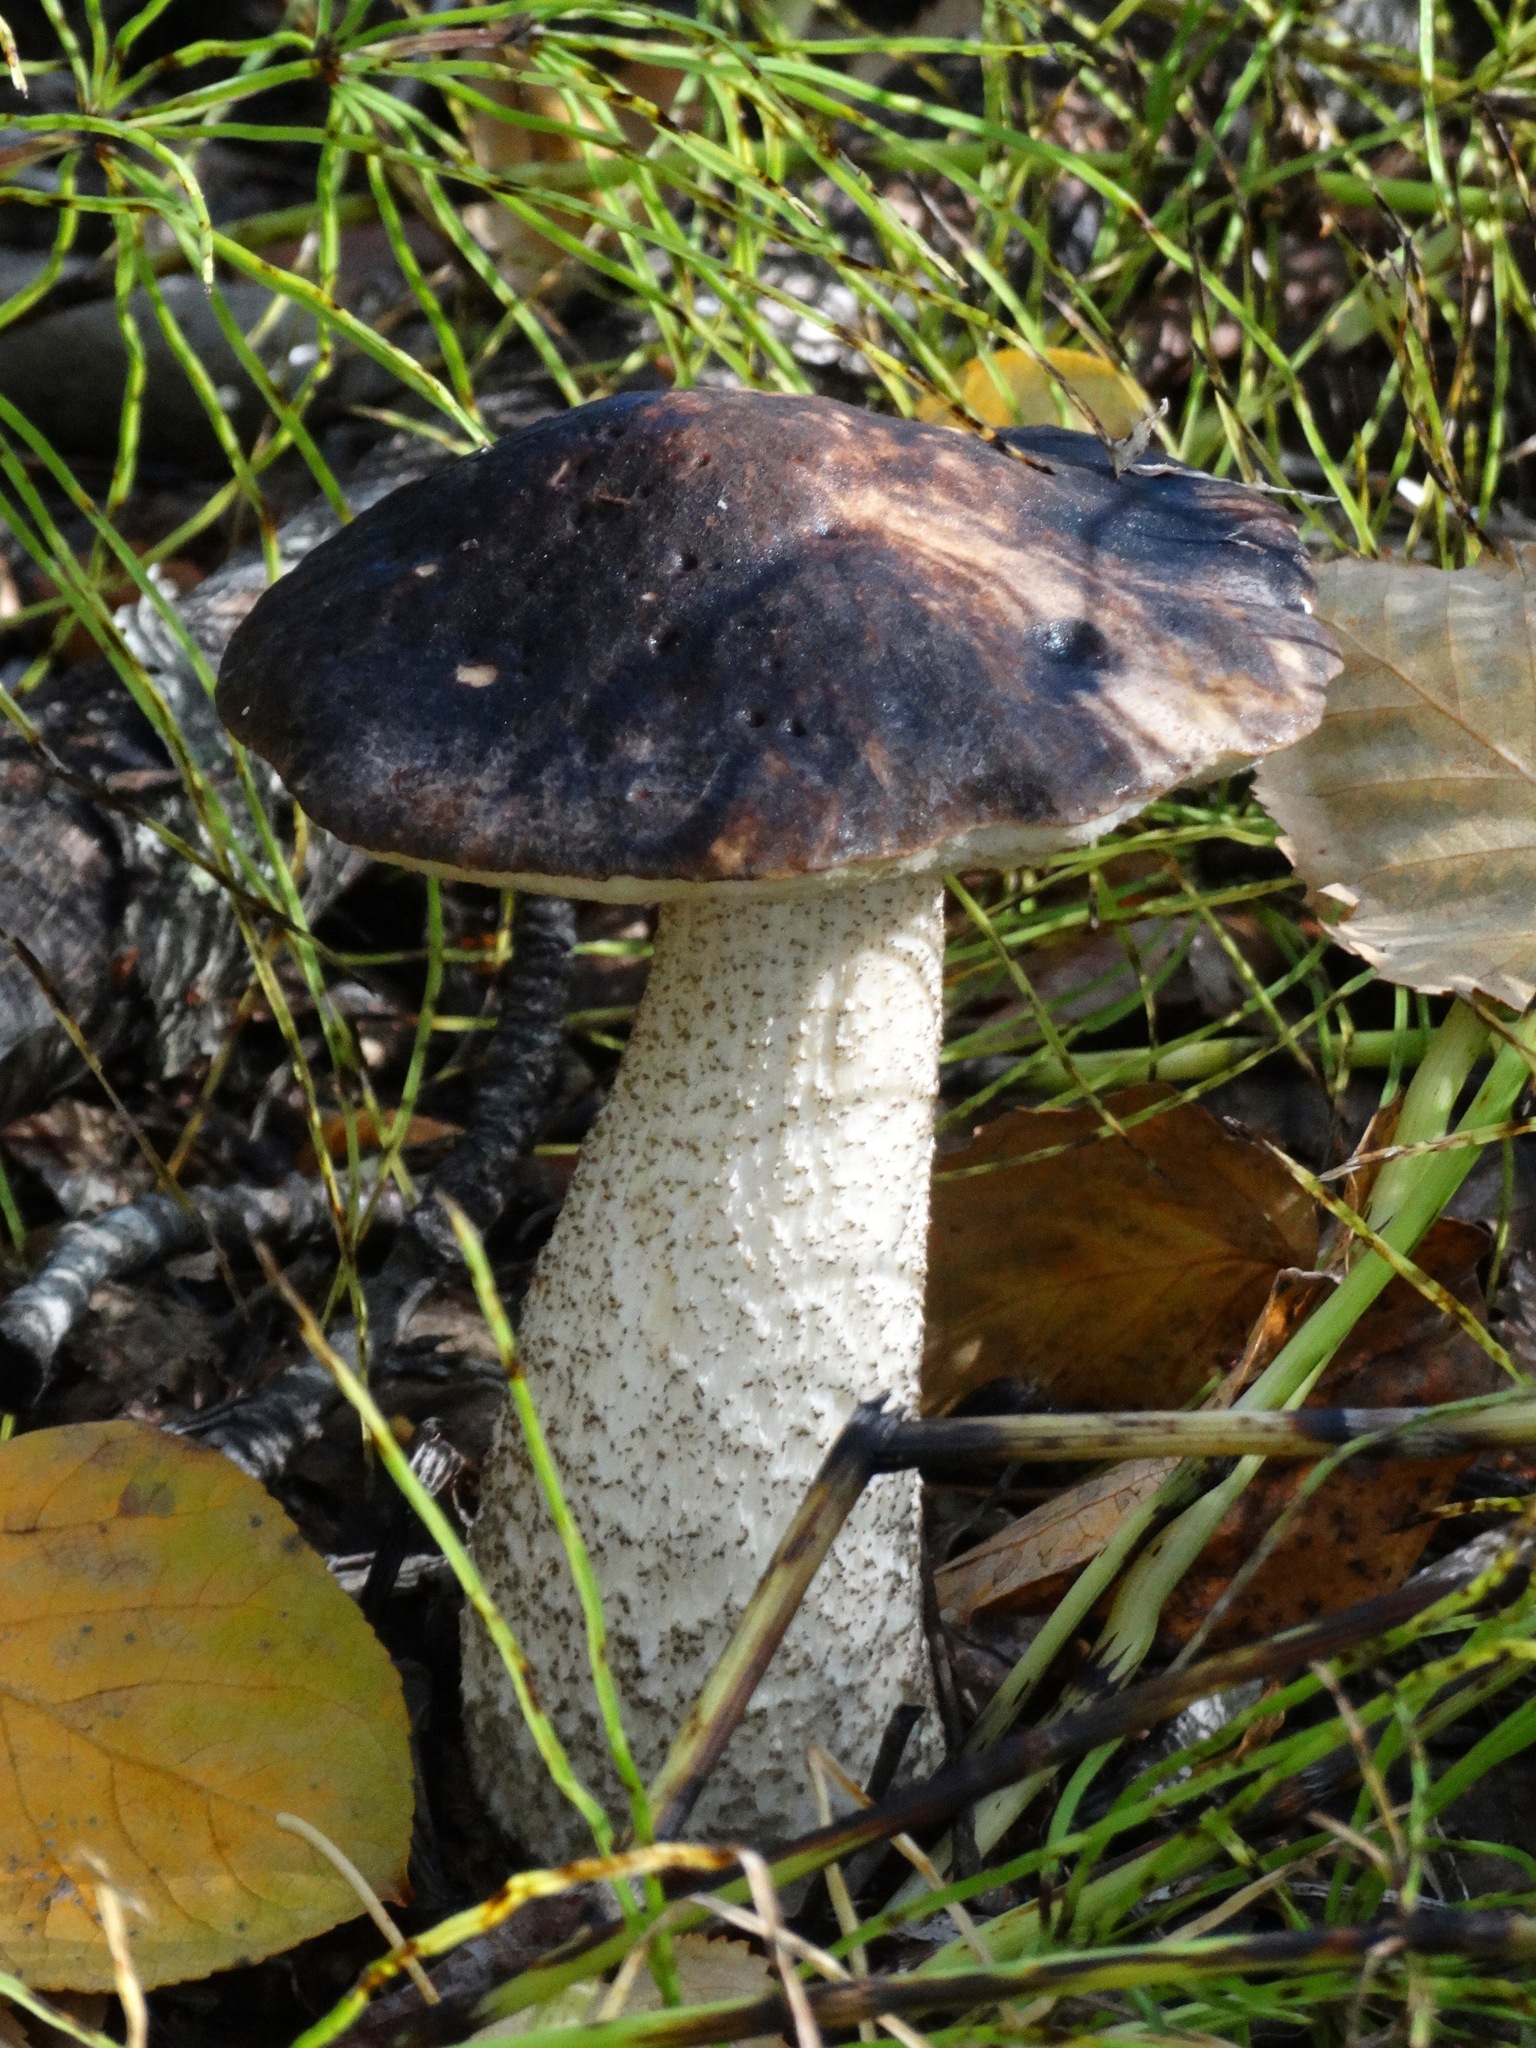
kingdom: Fungi
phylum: Basidiomycota
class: Agaricomycetes
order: Boletales
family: Boletaceae
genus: Leccinum
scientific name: Leccinum alaskanum
